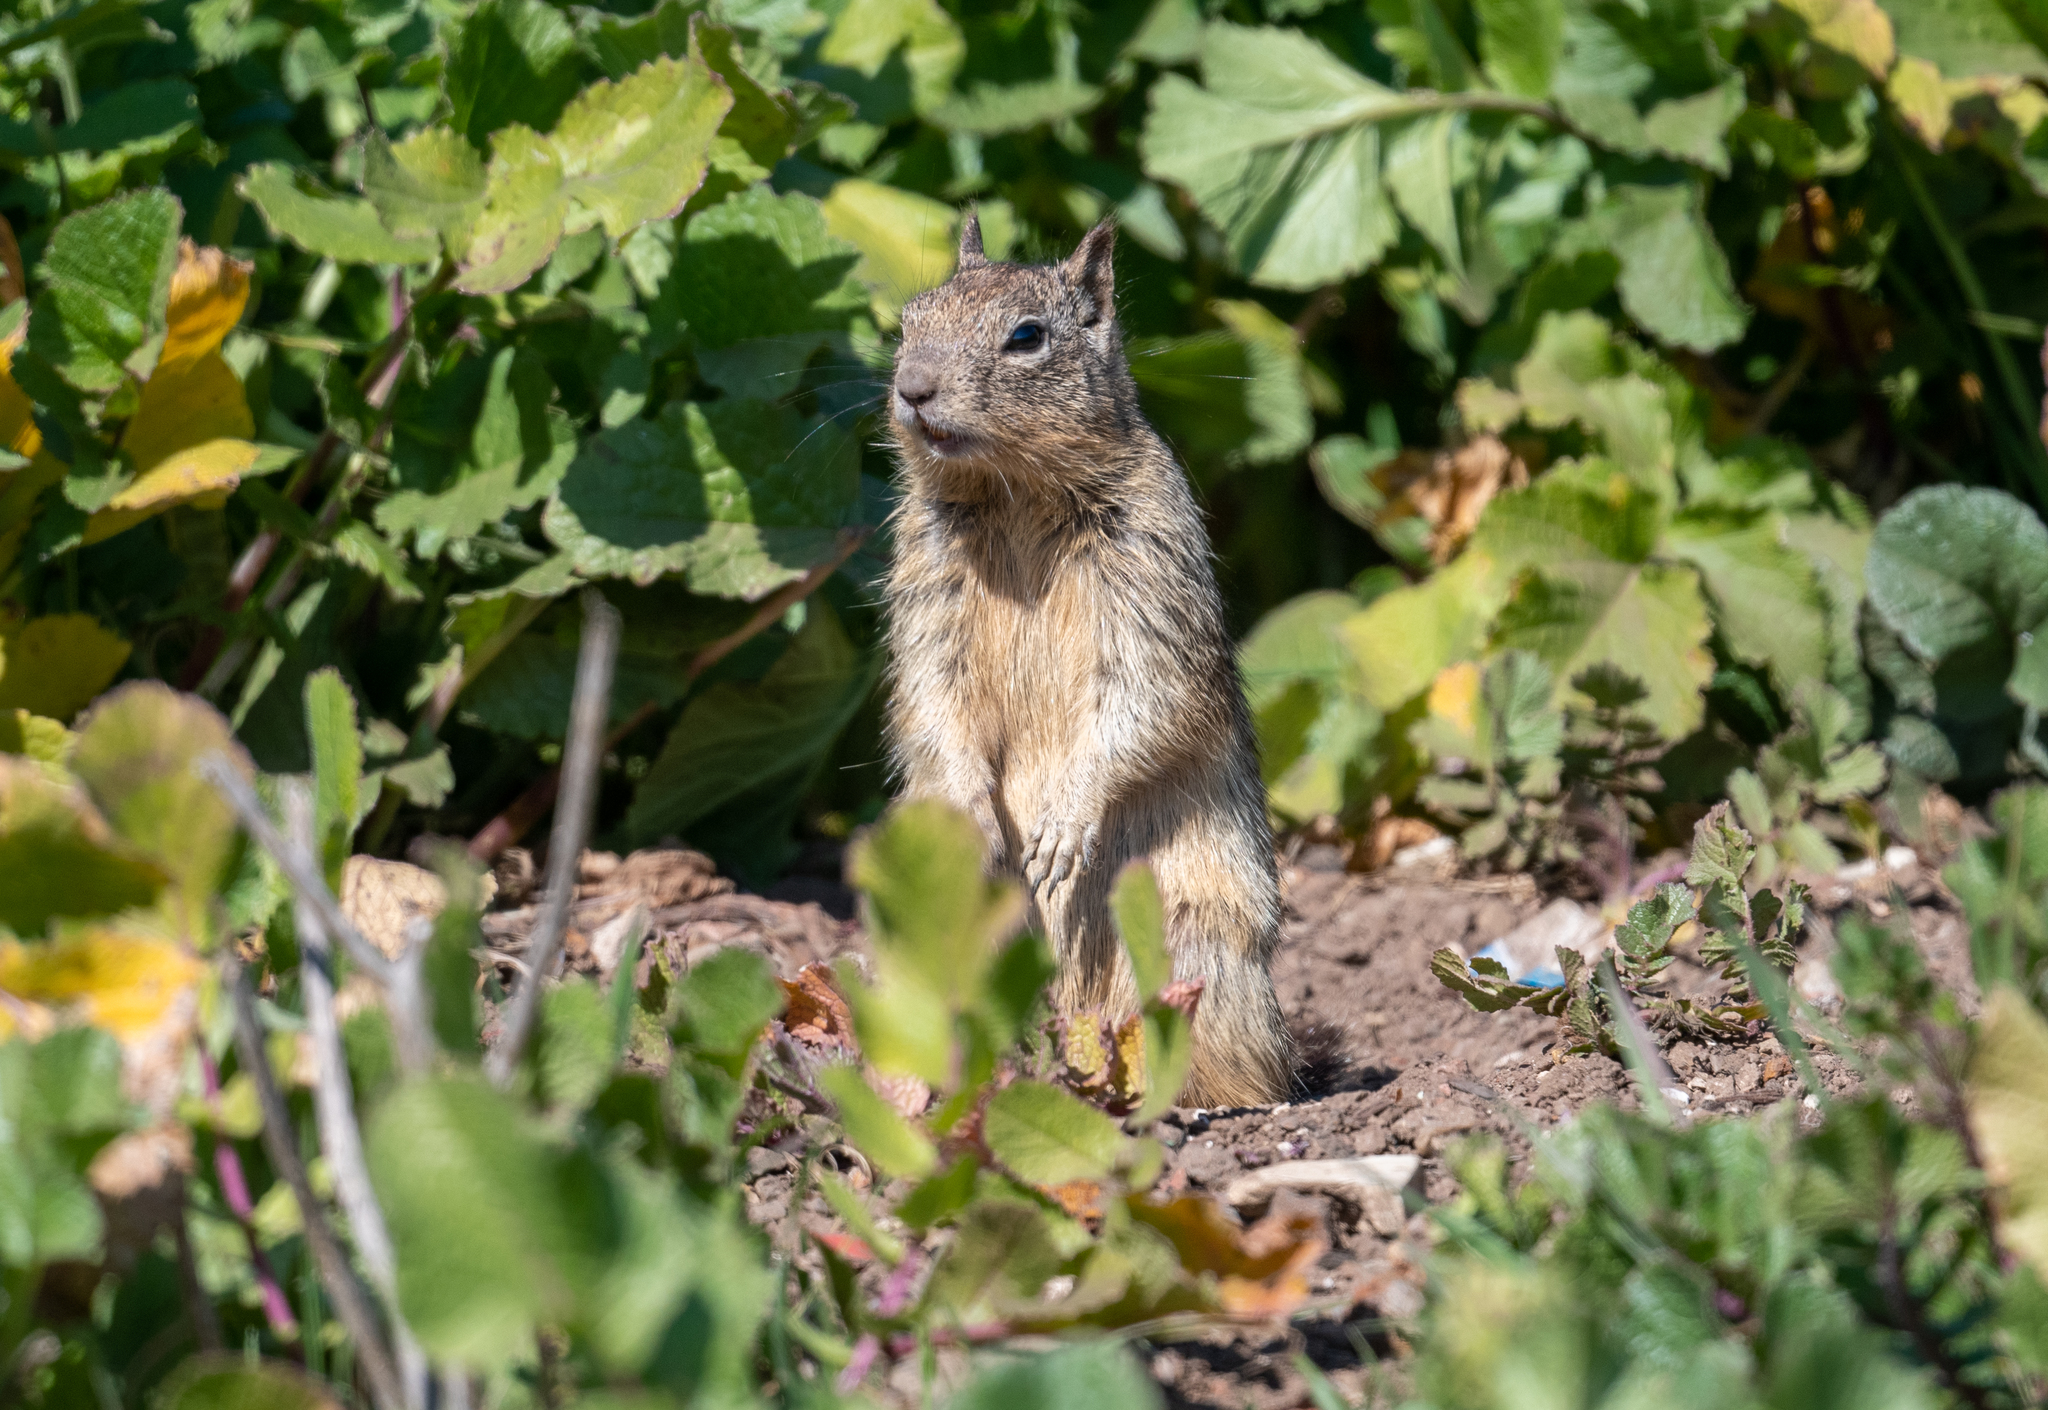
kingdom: Animalia
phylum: Chordata
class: Mammalia
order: Rodentia
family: Sciuridae
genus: Otospermophilus
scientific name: Otospermophilus beecheyi
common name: California ground squirrel
